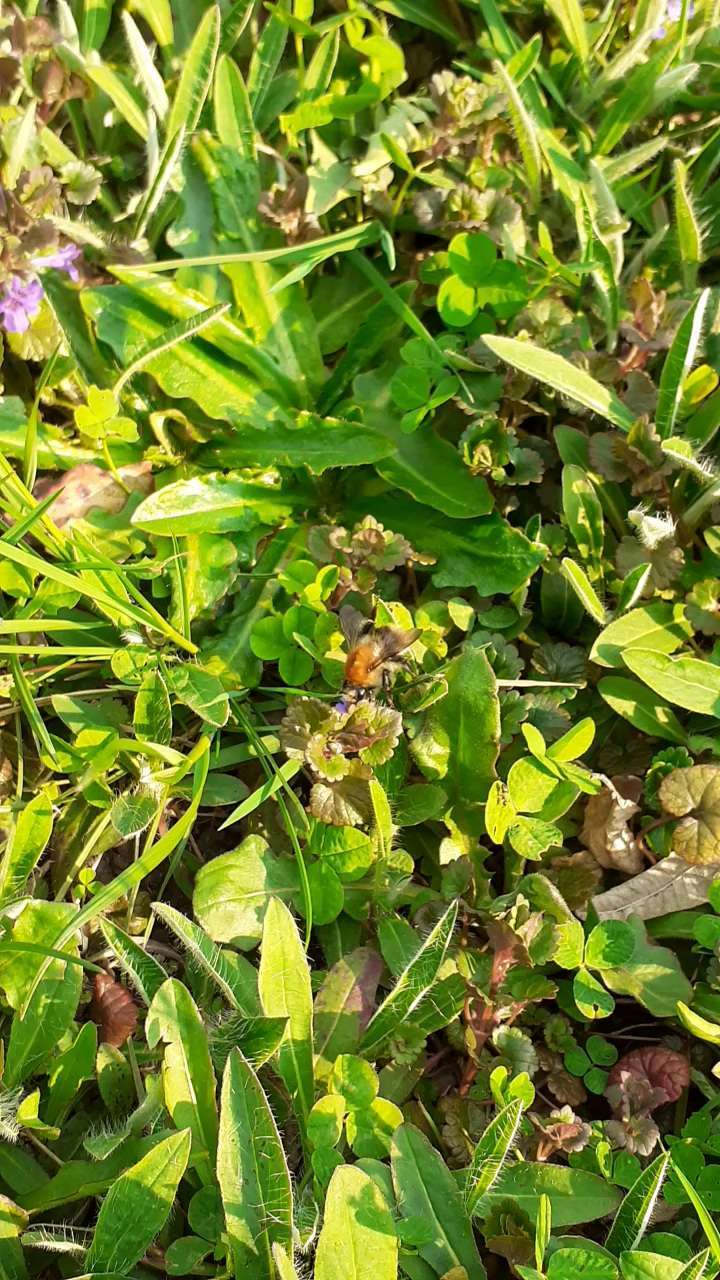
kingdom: Animalia
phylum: Arthropoda
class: Insecta
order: Hymenoptera
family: Apidae
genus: Bombus
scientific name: Bombus pascuorum
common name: Common carder bee
